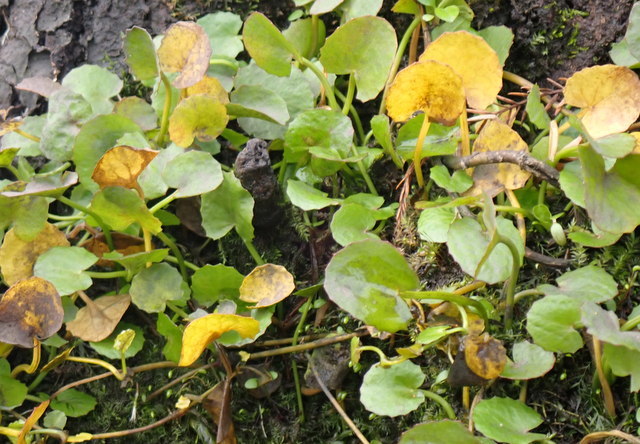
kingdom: Plantae
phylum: Tracheophyta
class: Magnoliopsida
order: Apiales
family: Apiaceae
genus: Centella
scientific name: Centella erecta
